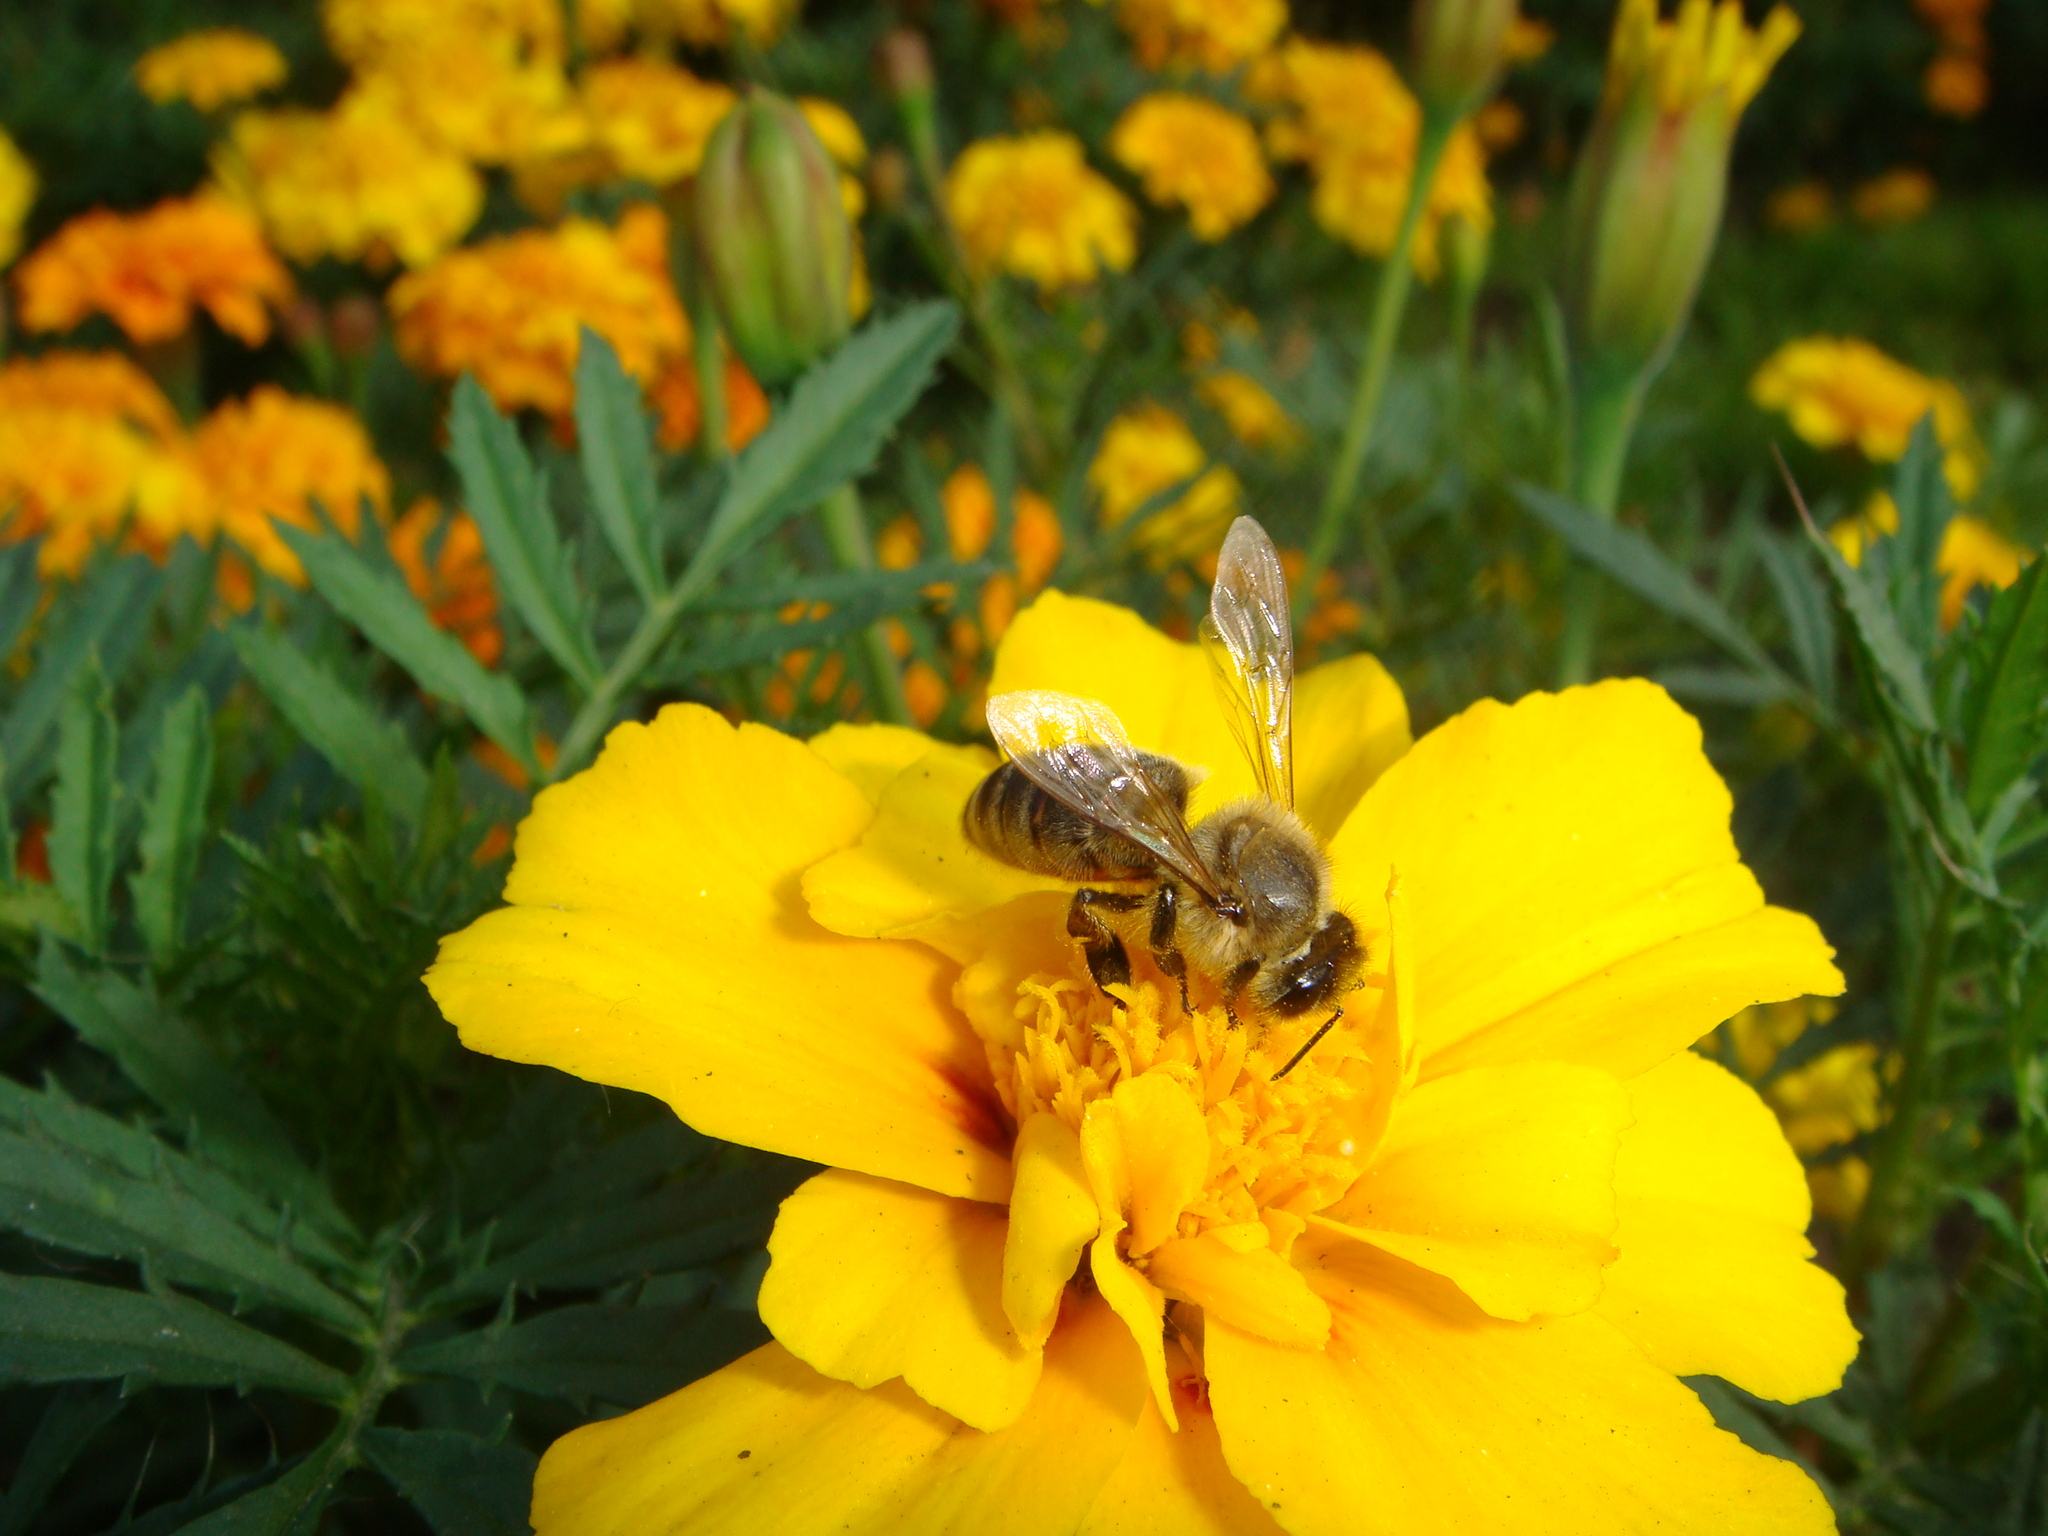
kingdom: Animalia
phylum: Arthropoda
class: Insecta
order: Hymenoptera
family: Apidae
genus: Apis
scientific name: Apis mellifera
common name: Honey bee
